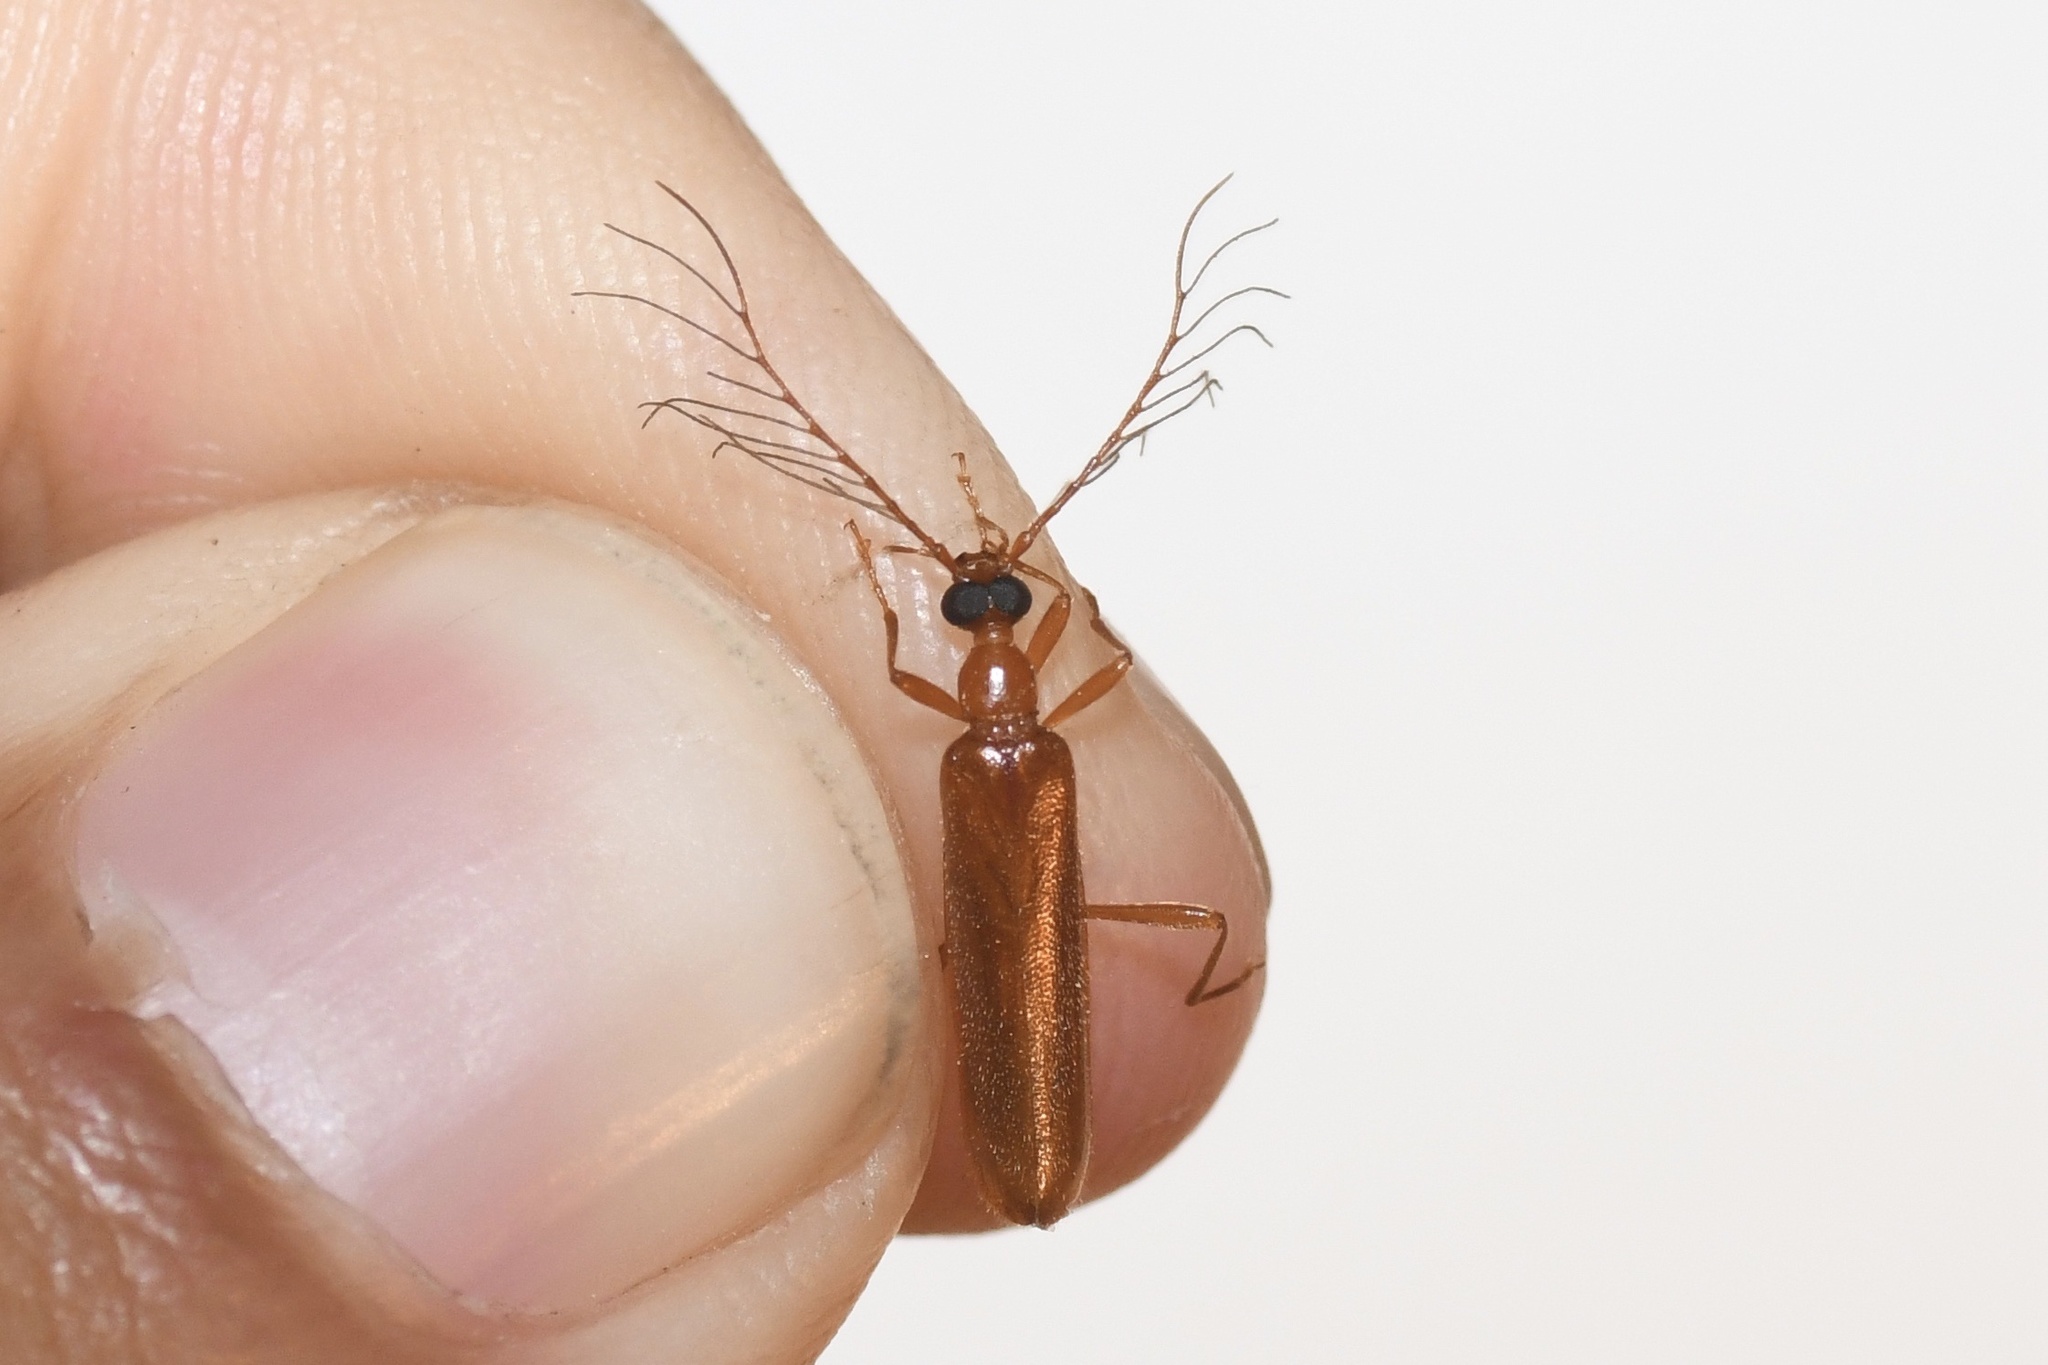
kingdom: Animalia
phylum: Arthropoda
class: Insecta
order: Coleoptera
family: Pyrochroidae
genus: Dendroides
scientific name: Dendroides concolor
